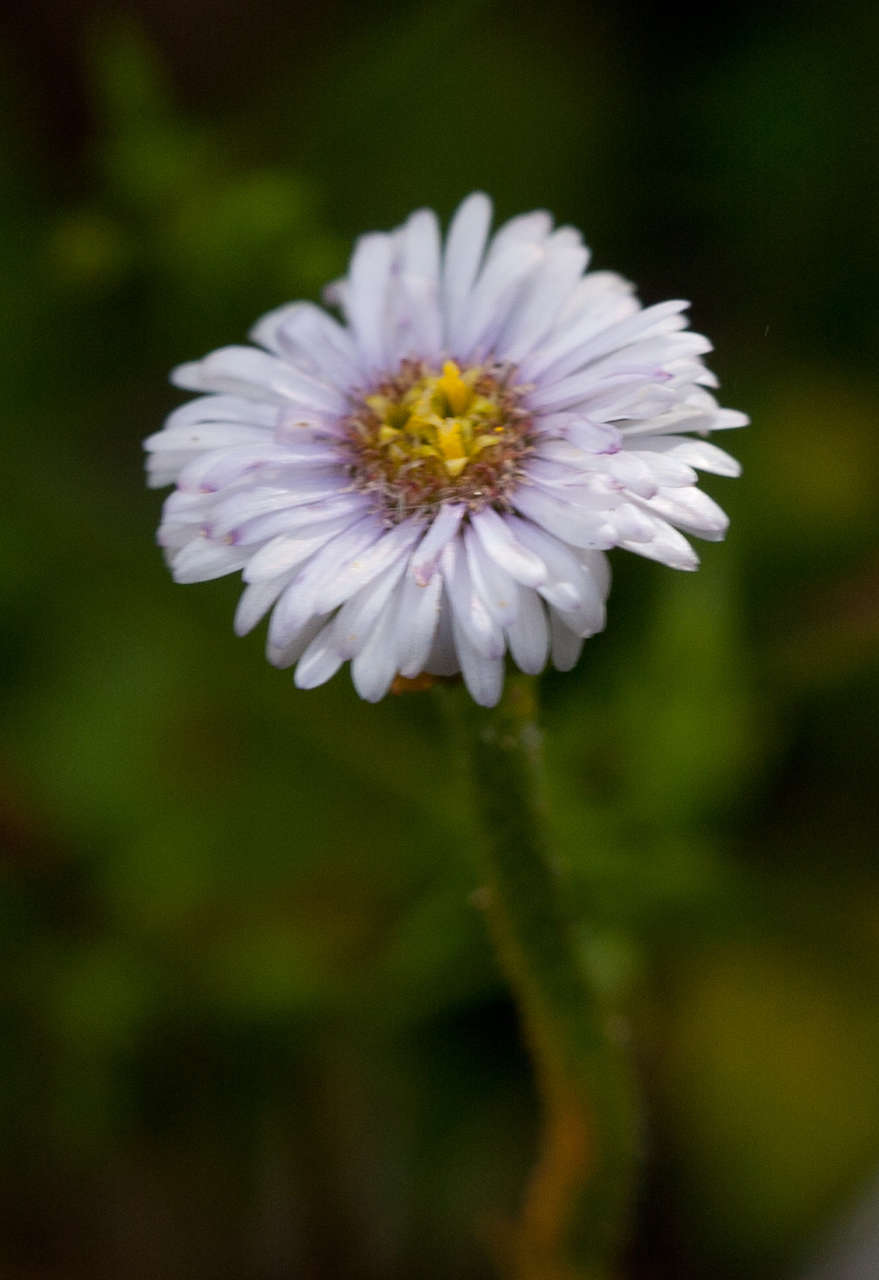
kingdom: Plantae
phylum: Tracheophyta
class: Magnoliopsida
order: Asterales
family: Asteraceae
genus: Lagenophora
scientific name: Lagenophora stipitata
